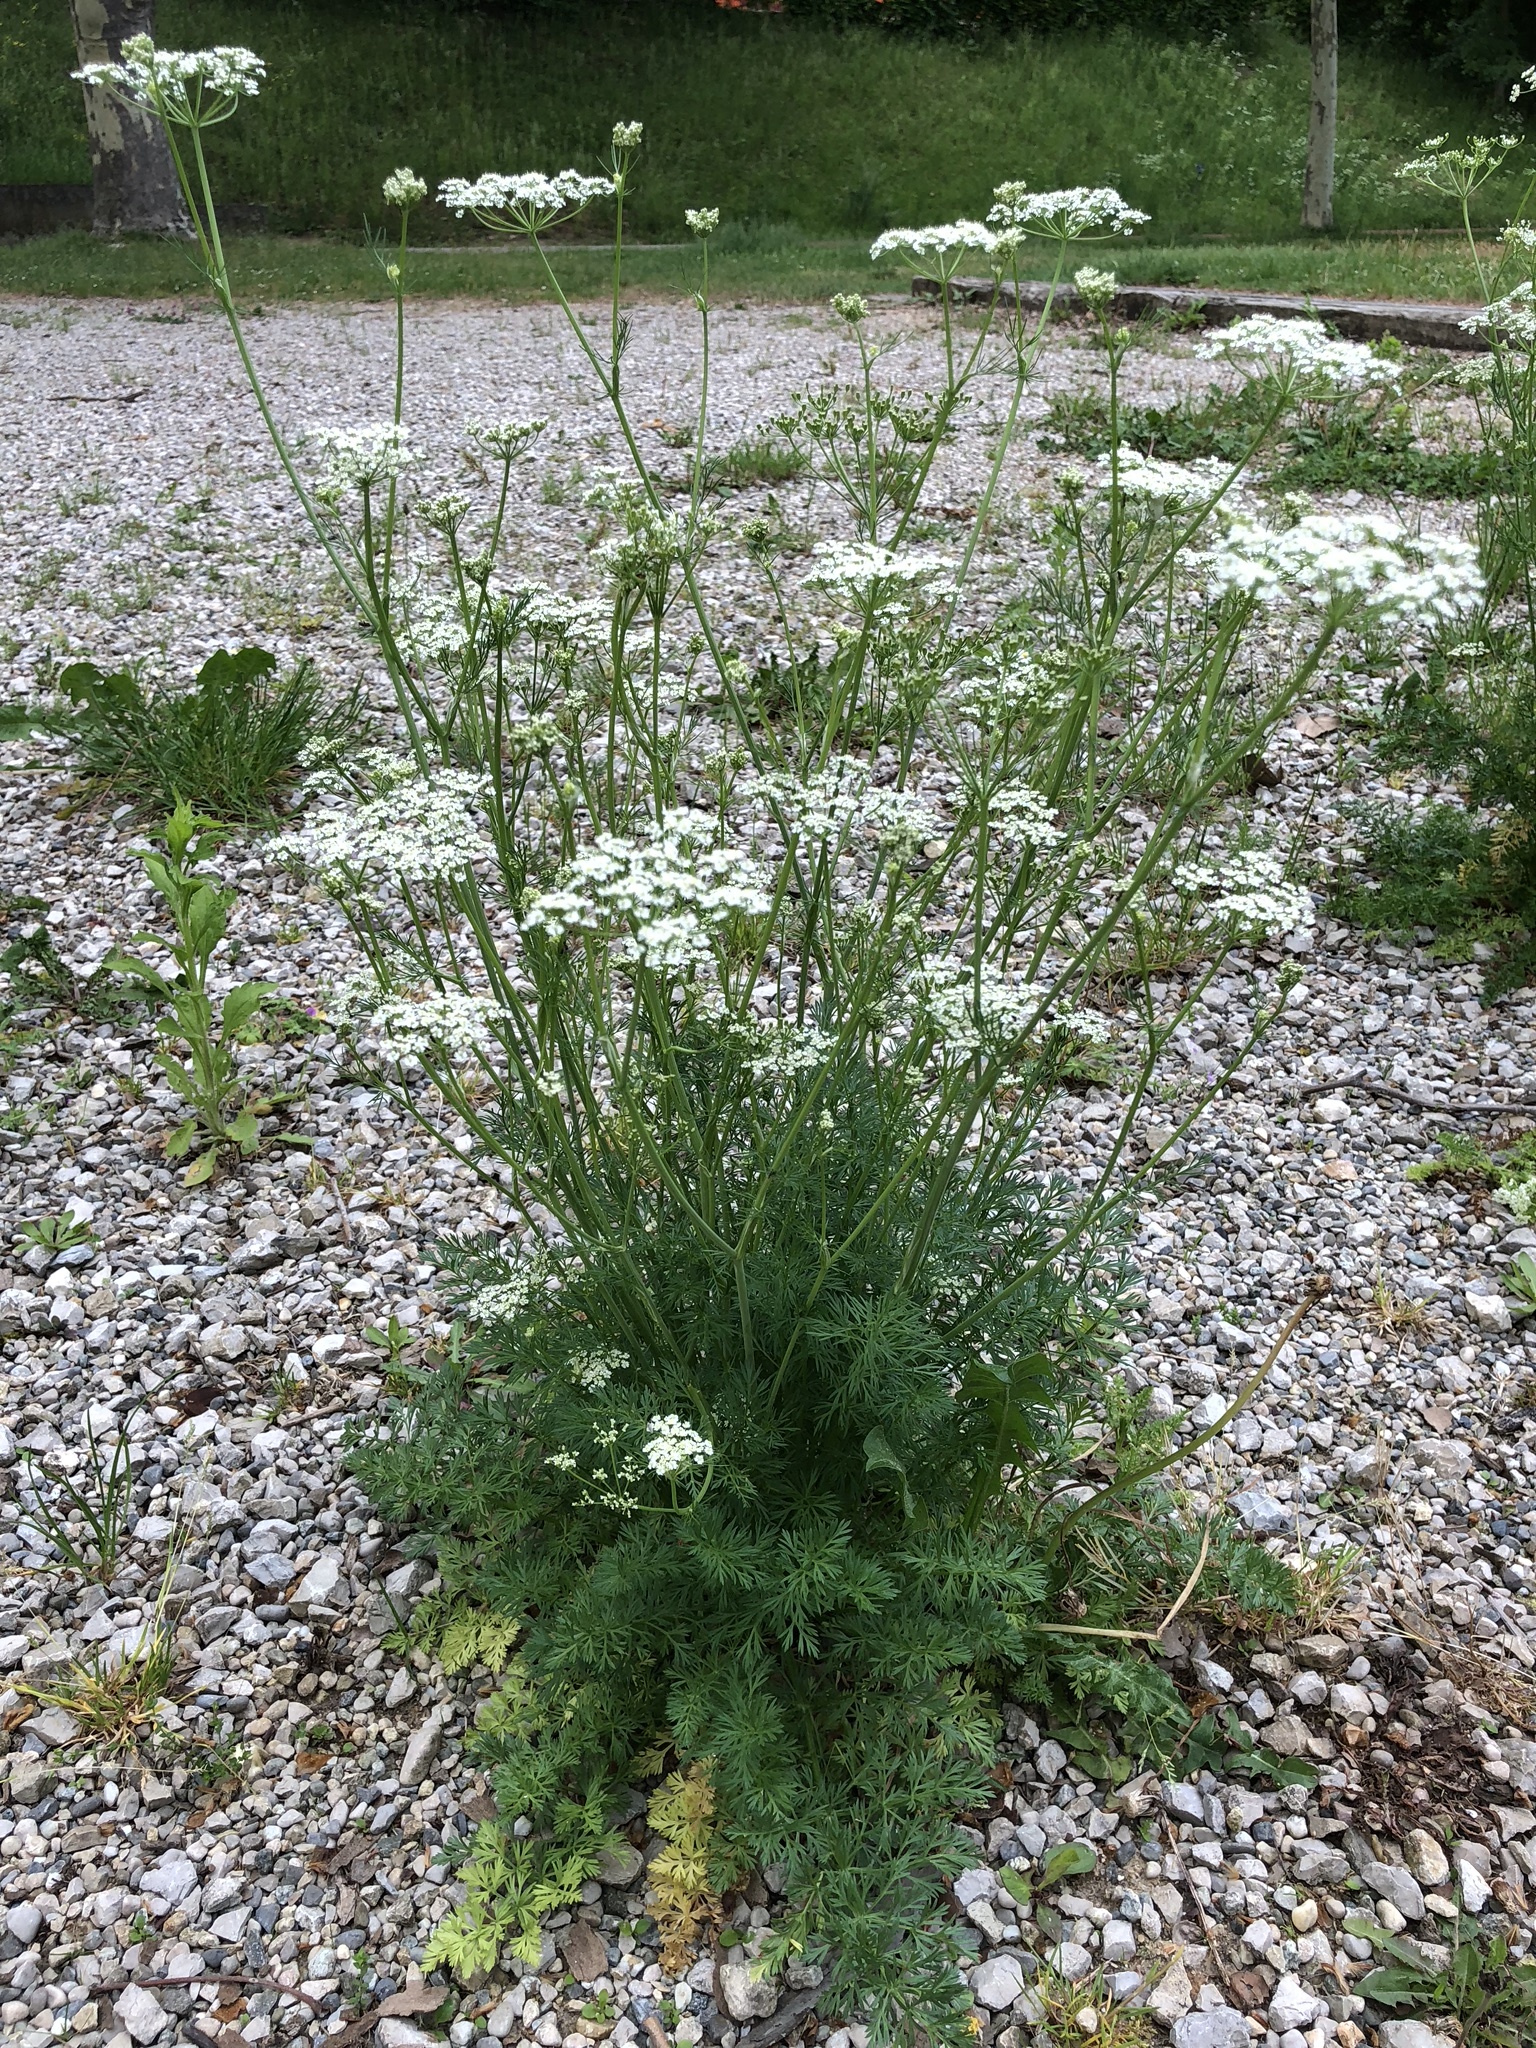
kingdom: Plantae
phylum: Tracheophyta
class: Magnoliopsida
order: Apiales
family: Apiaceae
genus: Carum
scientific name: Carum carvi
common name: Caraway
